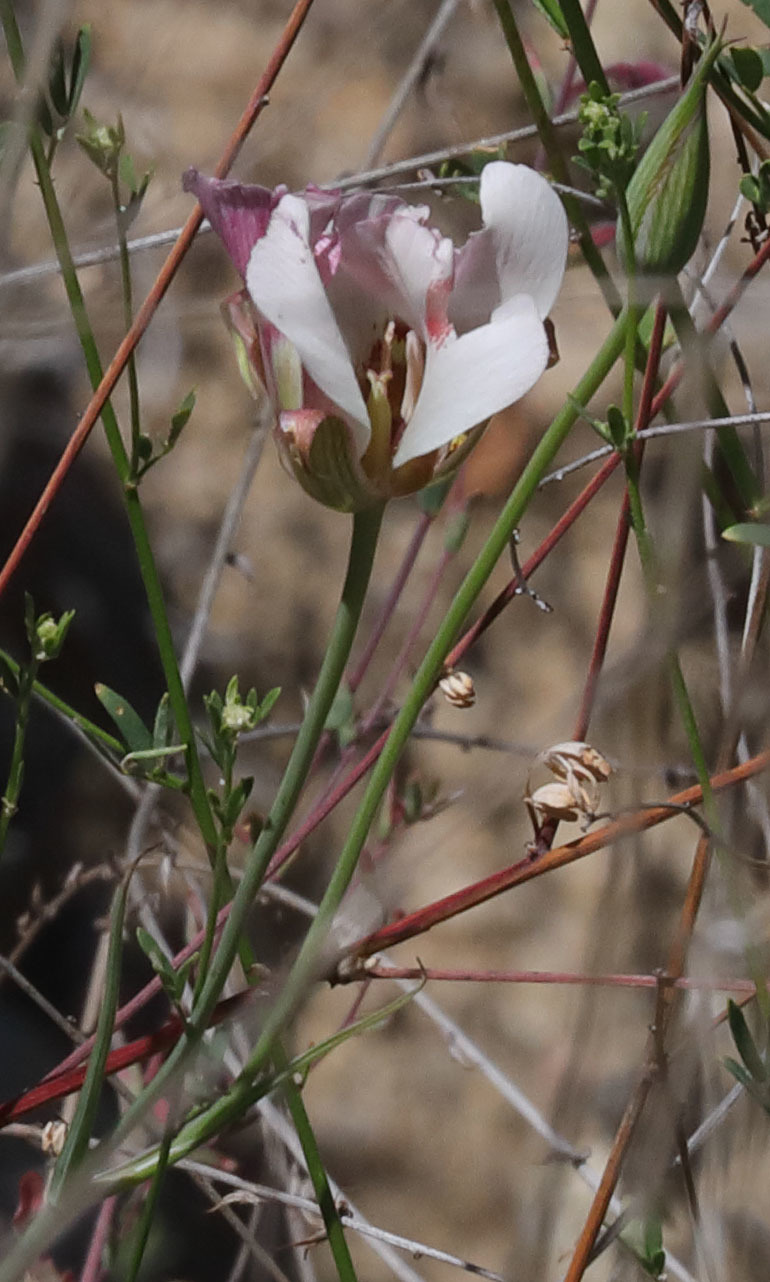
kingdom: Plantae
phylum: Tracheophyta
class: Liliopsida
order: Liliales
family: Liliaceae
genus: Calochortus
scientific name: Calochortus venustus
